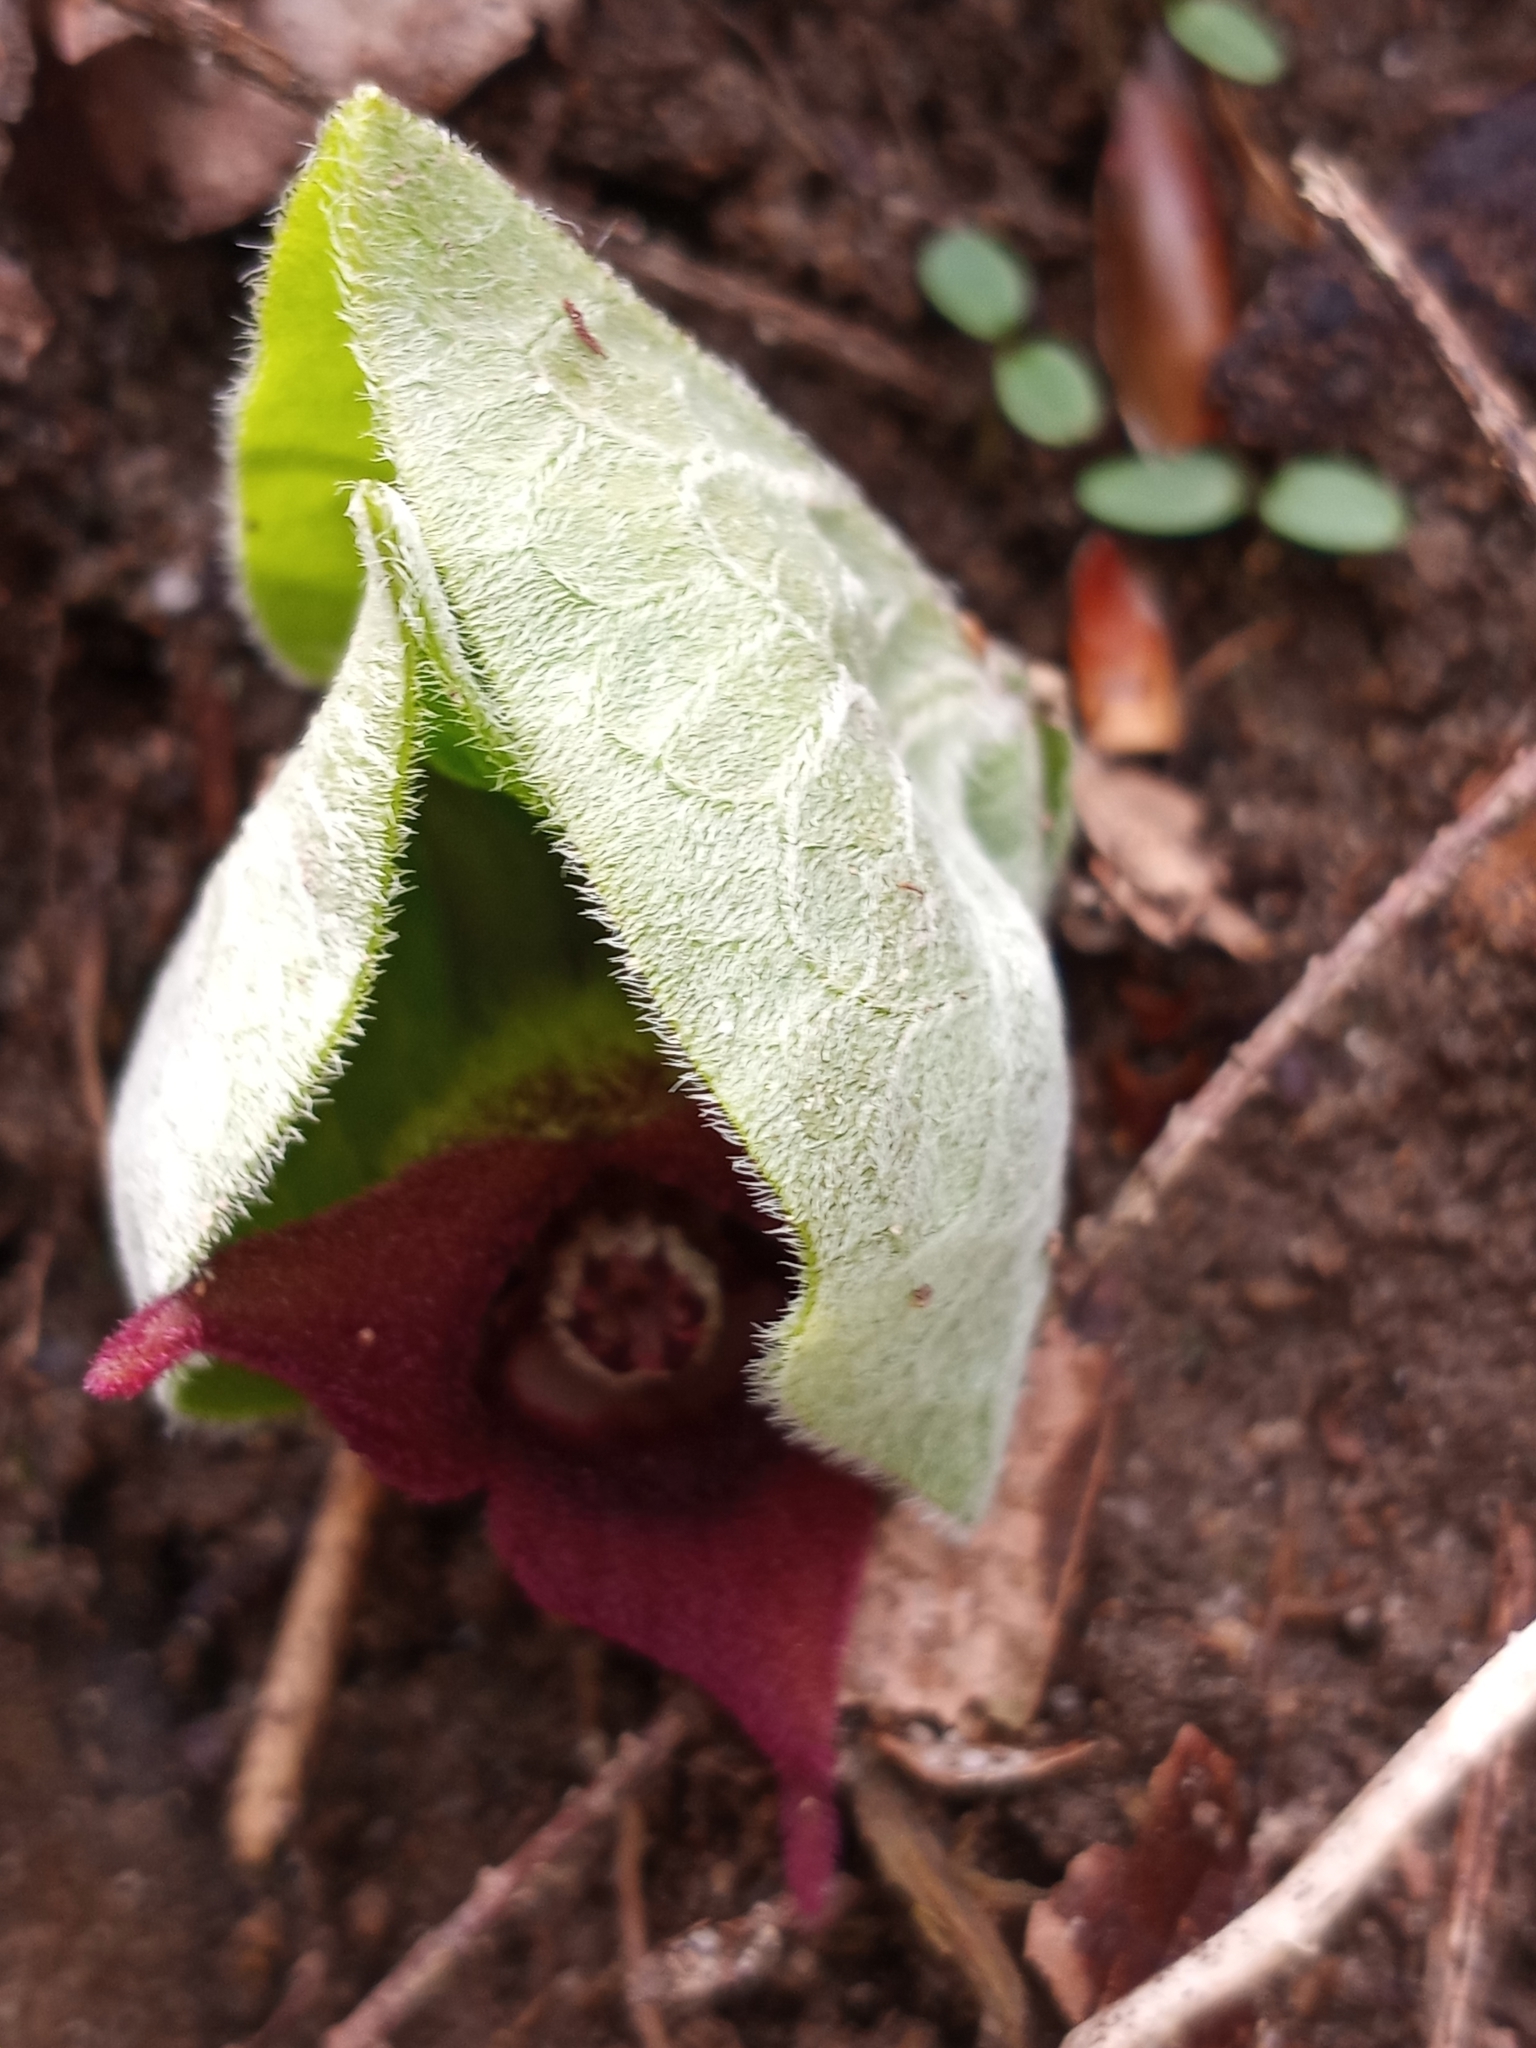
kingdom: Plantae
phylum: Tracheophyta
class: Magnoliopsida
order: Piperales
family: Aristolochiaceae
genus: Asarum
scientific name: Asarum canadense
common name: Wild ginger
